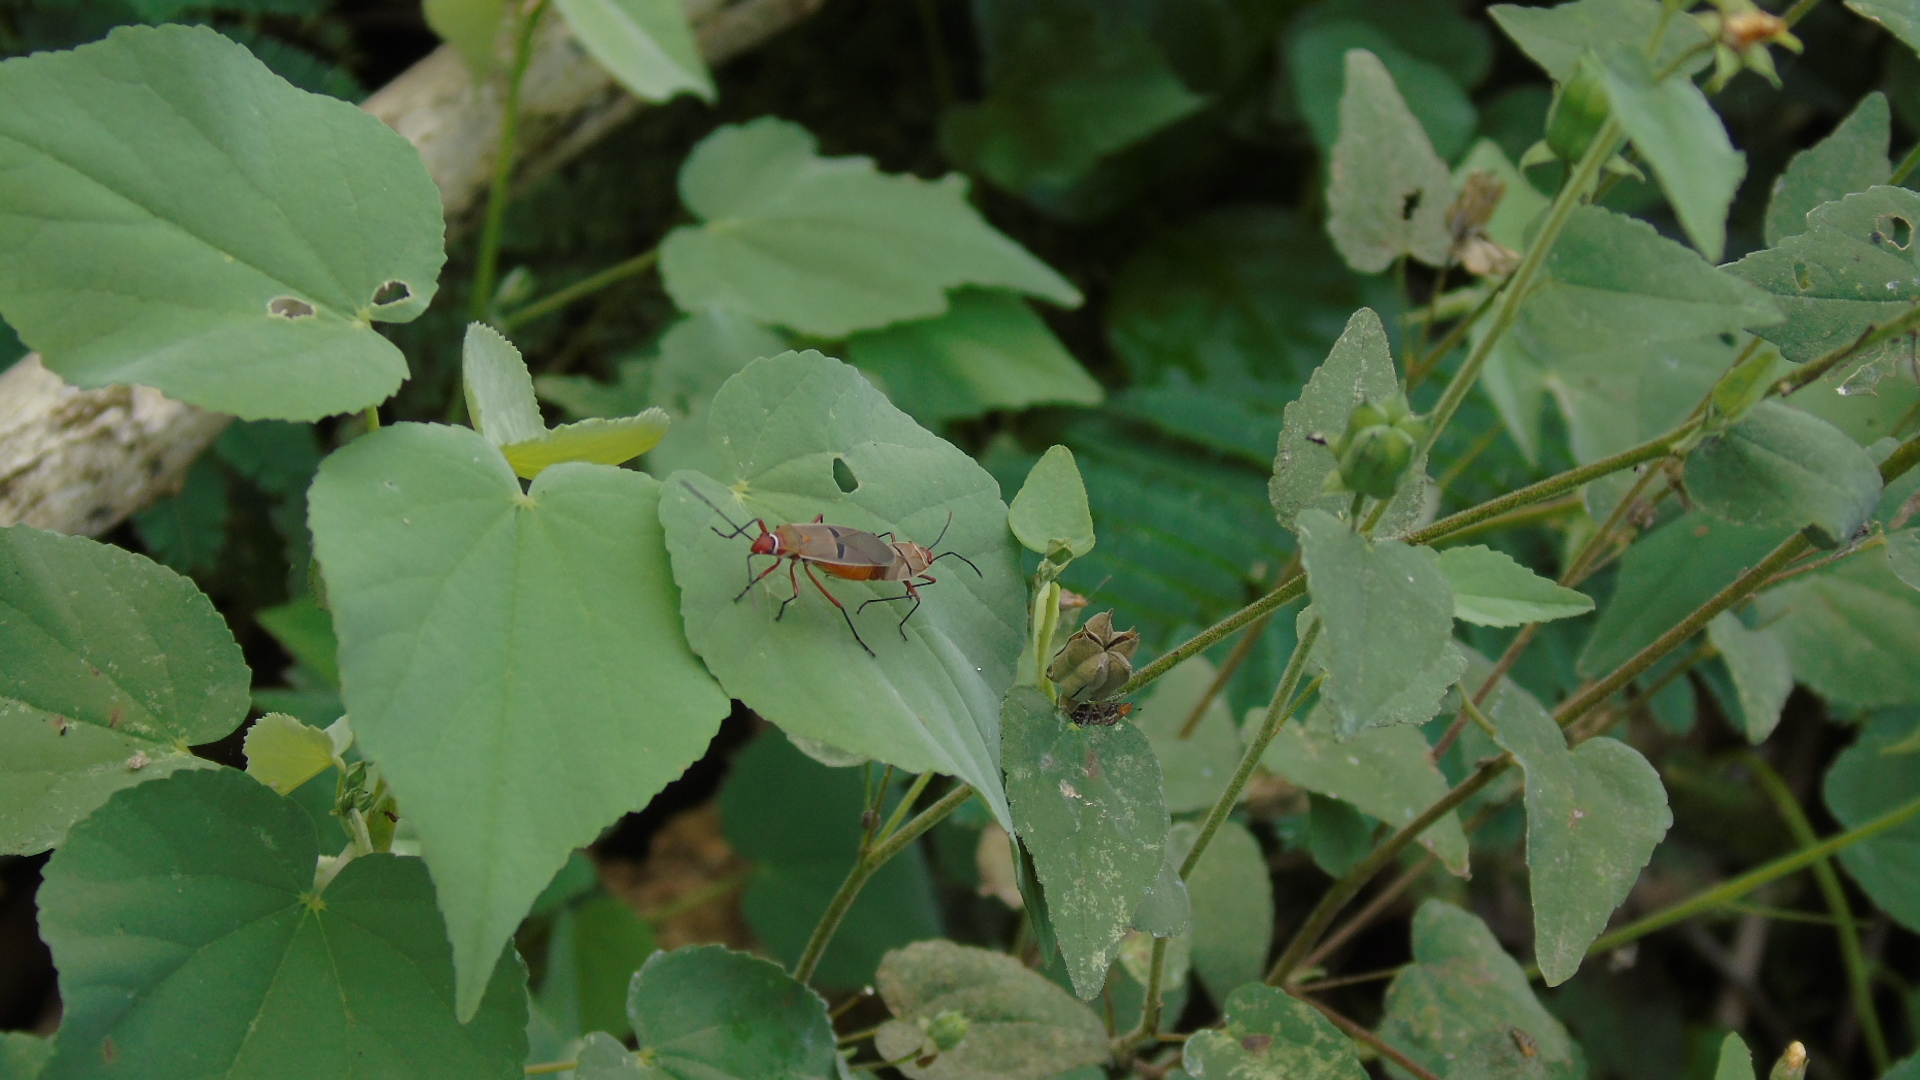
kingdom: Animalia
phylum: Arthropoda
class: Insecta
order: Hemiptera
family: Pyrrhocoridae
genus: Dysdercus
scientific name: Dysdercus bimaculatus
